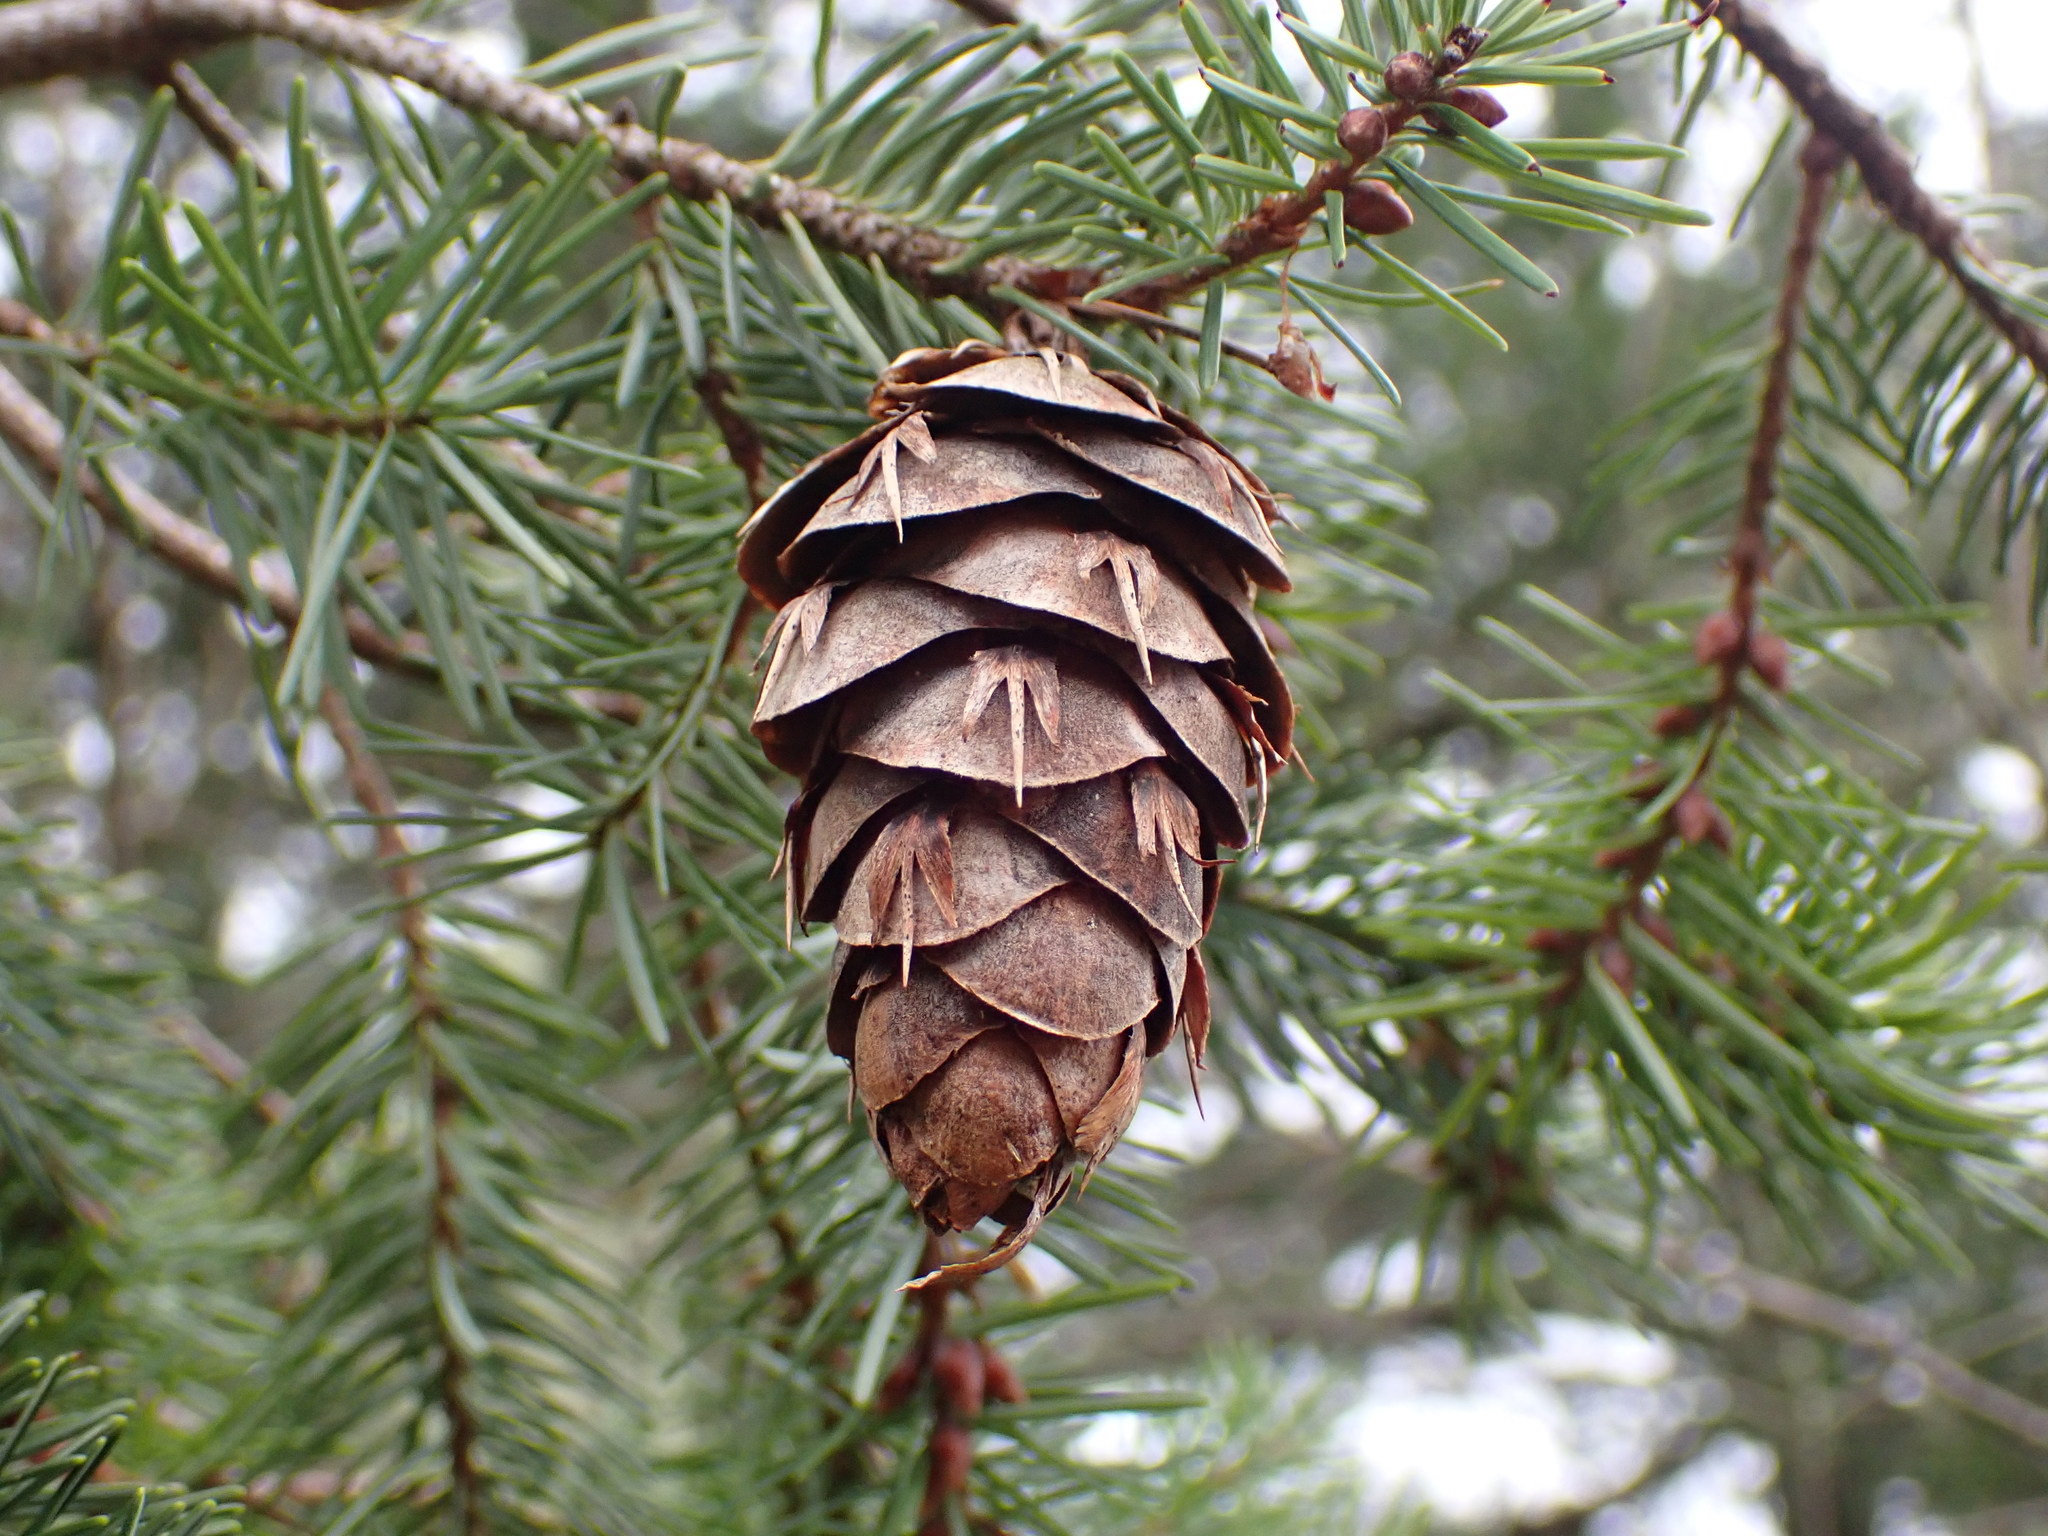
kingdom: Plantae
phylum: Tracheophyta
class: Pinopsida
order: Pinales
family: Pinaceae
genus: Pseudotsuga
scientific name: Pseudotsuga menziesii
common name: Douglas fir
